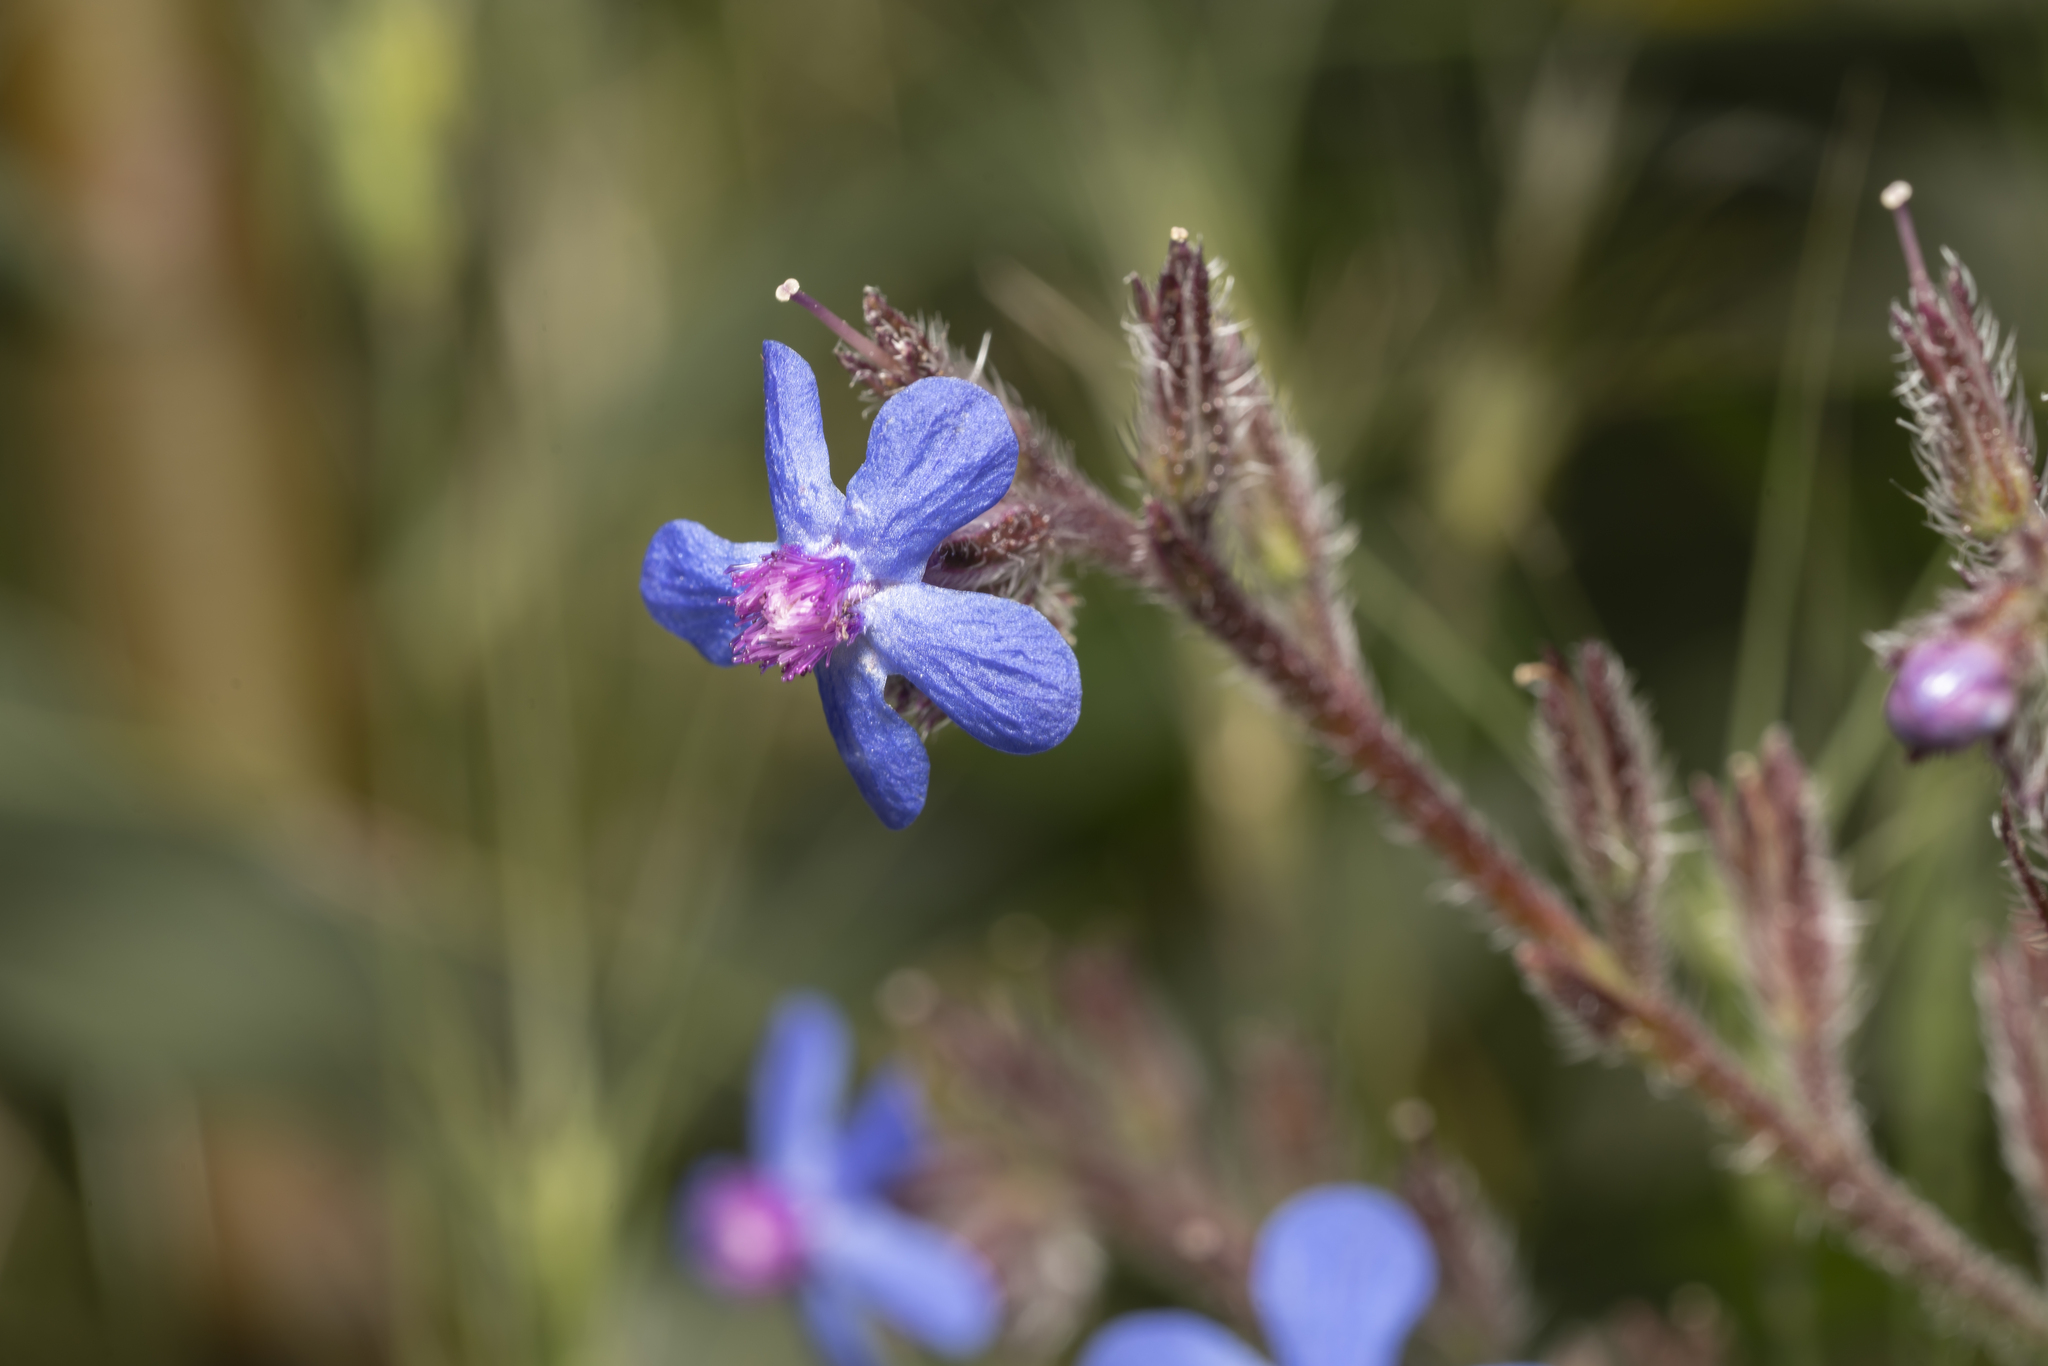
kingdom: Plantae
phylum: Tracheophyta
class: Magnoliopsida
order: Boraginales
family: Boraginaceae
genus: Anchusa
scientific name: Anchusa azurea
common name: Garden anchusa
